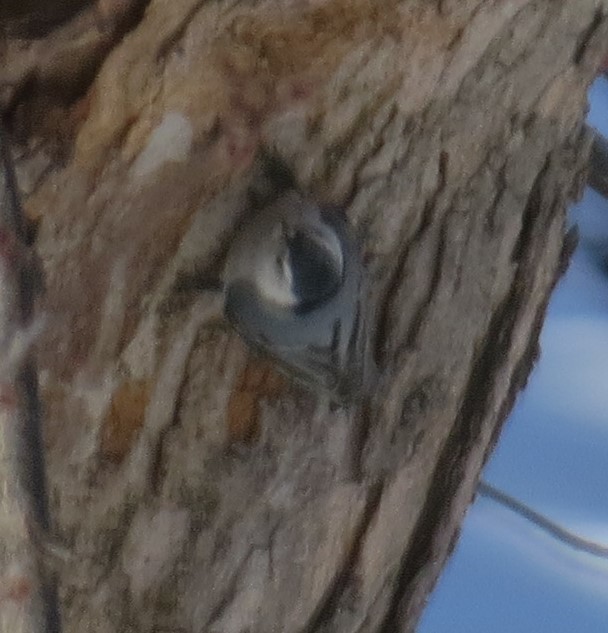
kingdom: Animalia
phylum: Chordata
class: Aves
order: Passeriformes
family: Sittidae
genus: Sitta
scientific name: Sitta carolinensis
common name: White-breasted nuthatch
